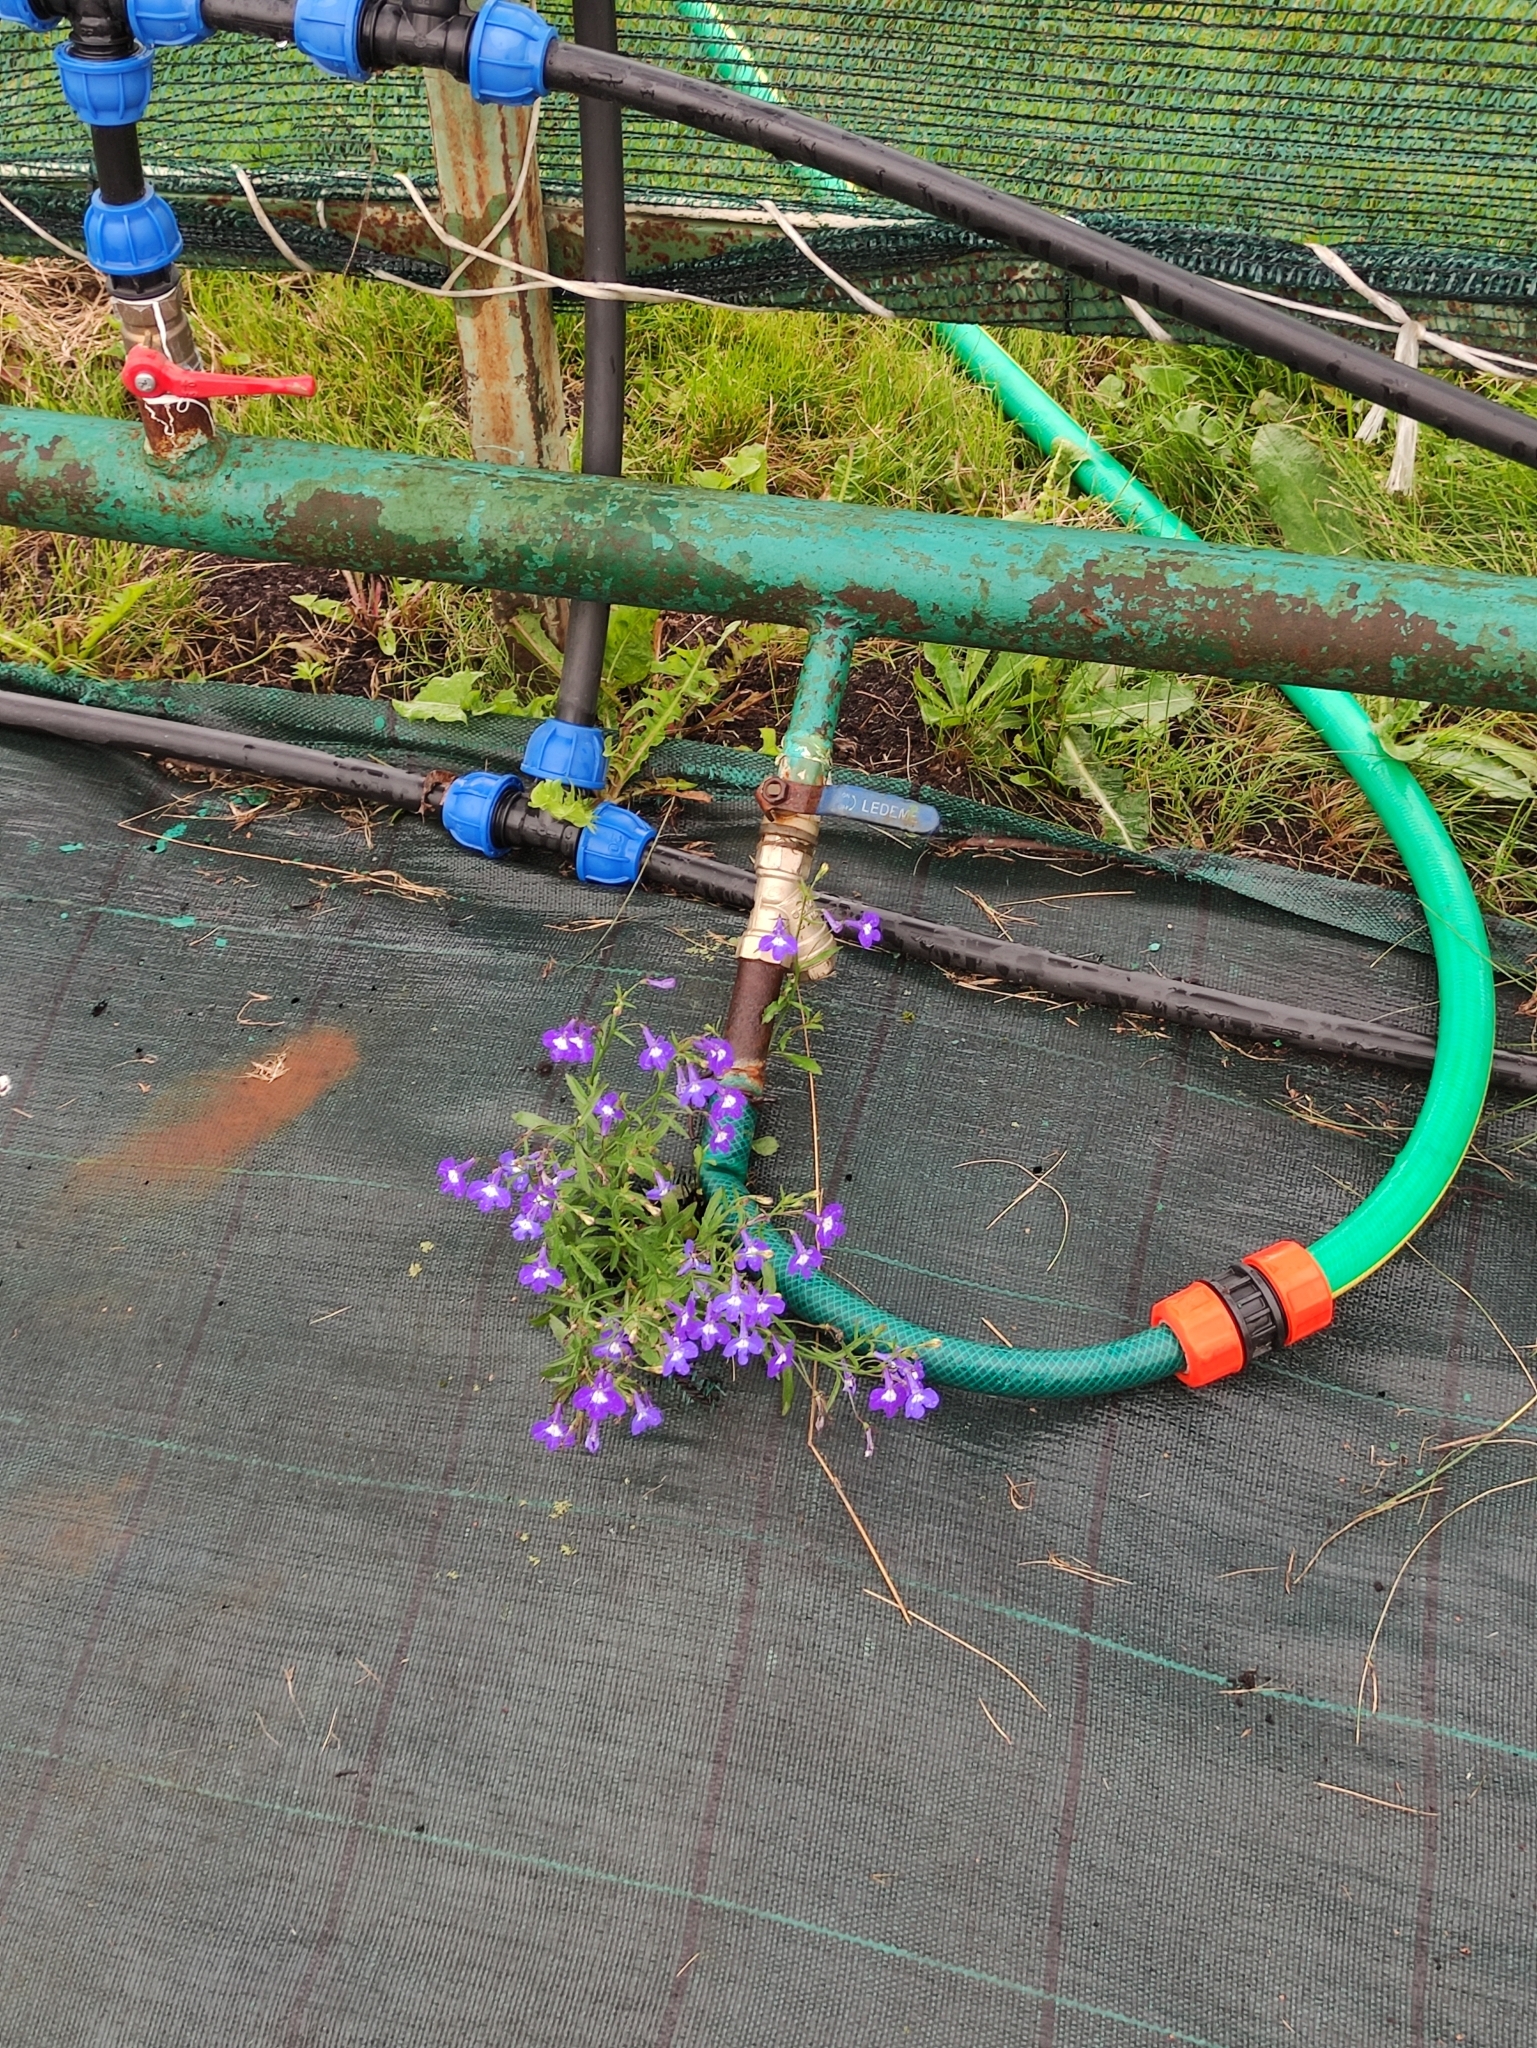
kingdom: Plantae
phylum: Tracheophyta
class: Magnoliopsida
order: Asterales
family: Campanulaceae
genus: Lobelia
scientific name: Lobelia erinus
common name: Edging lobelia
